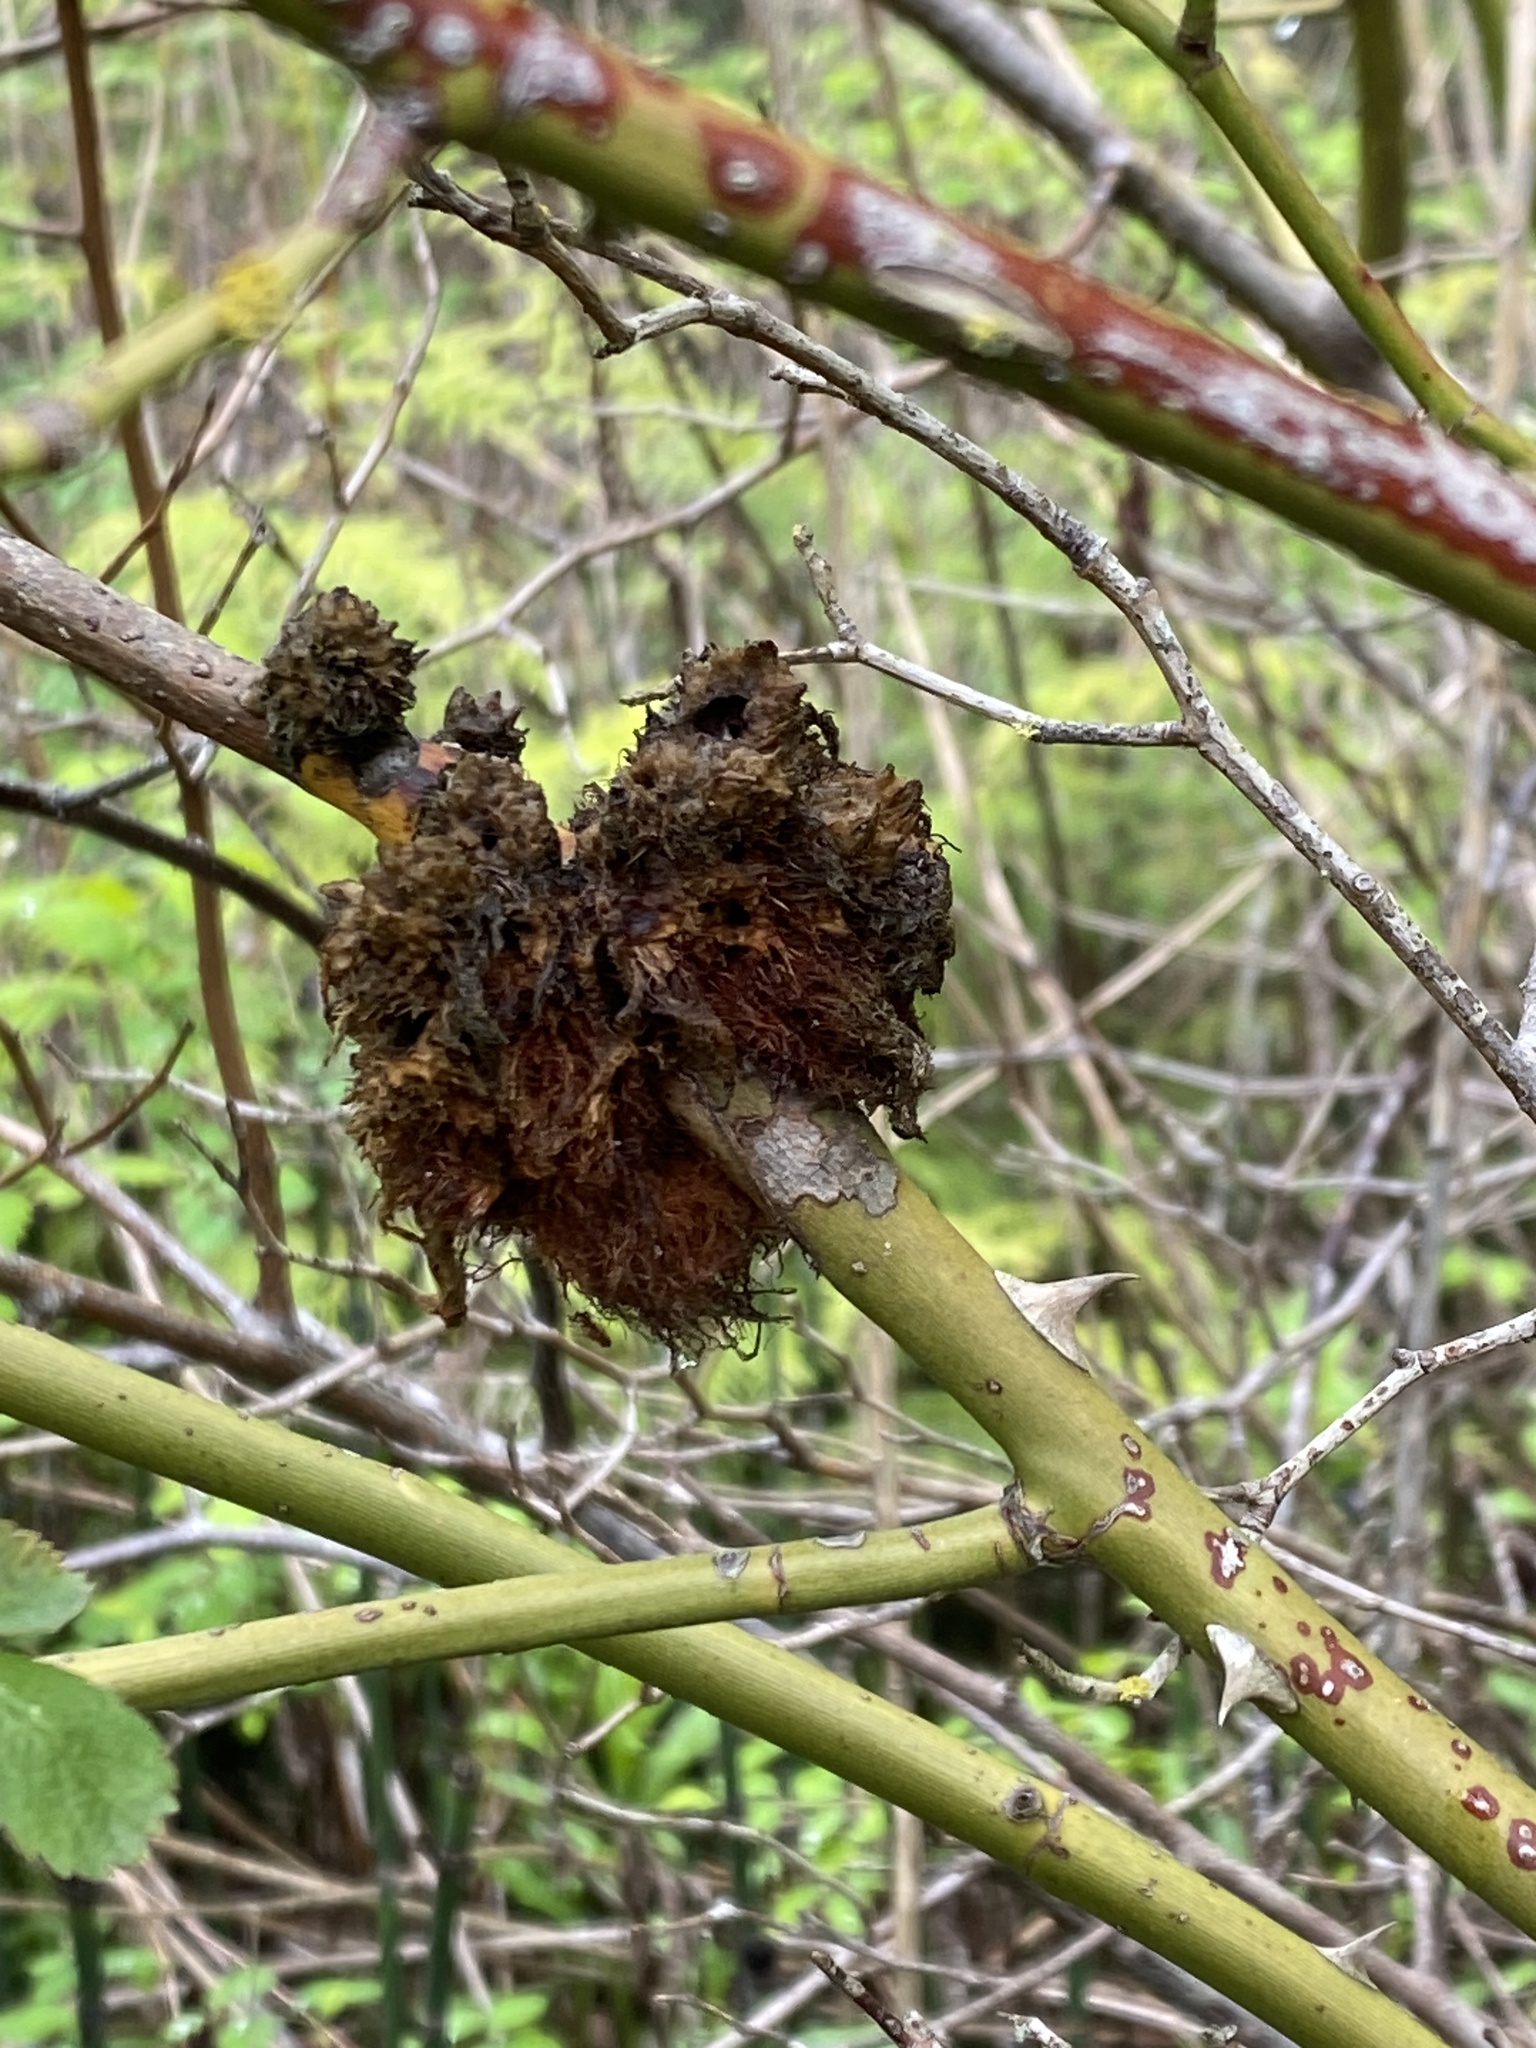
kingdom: Animalia
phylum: Arthropoda
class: Insecta
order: Hymenoptera
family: Cynipidae
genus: Diplolepis
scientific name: Diplolepis rosae
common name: Bedeguar gall
